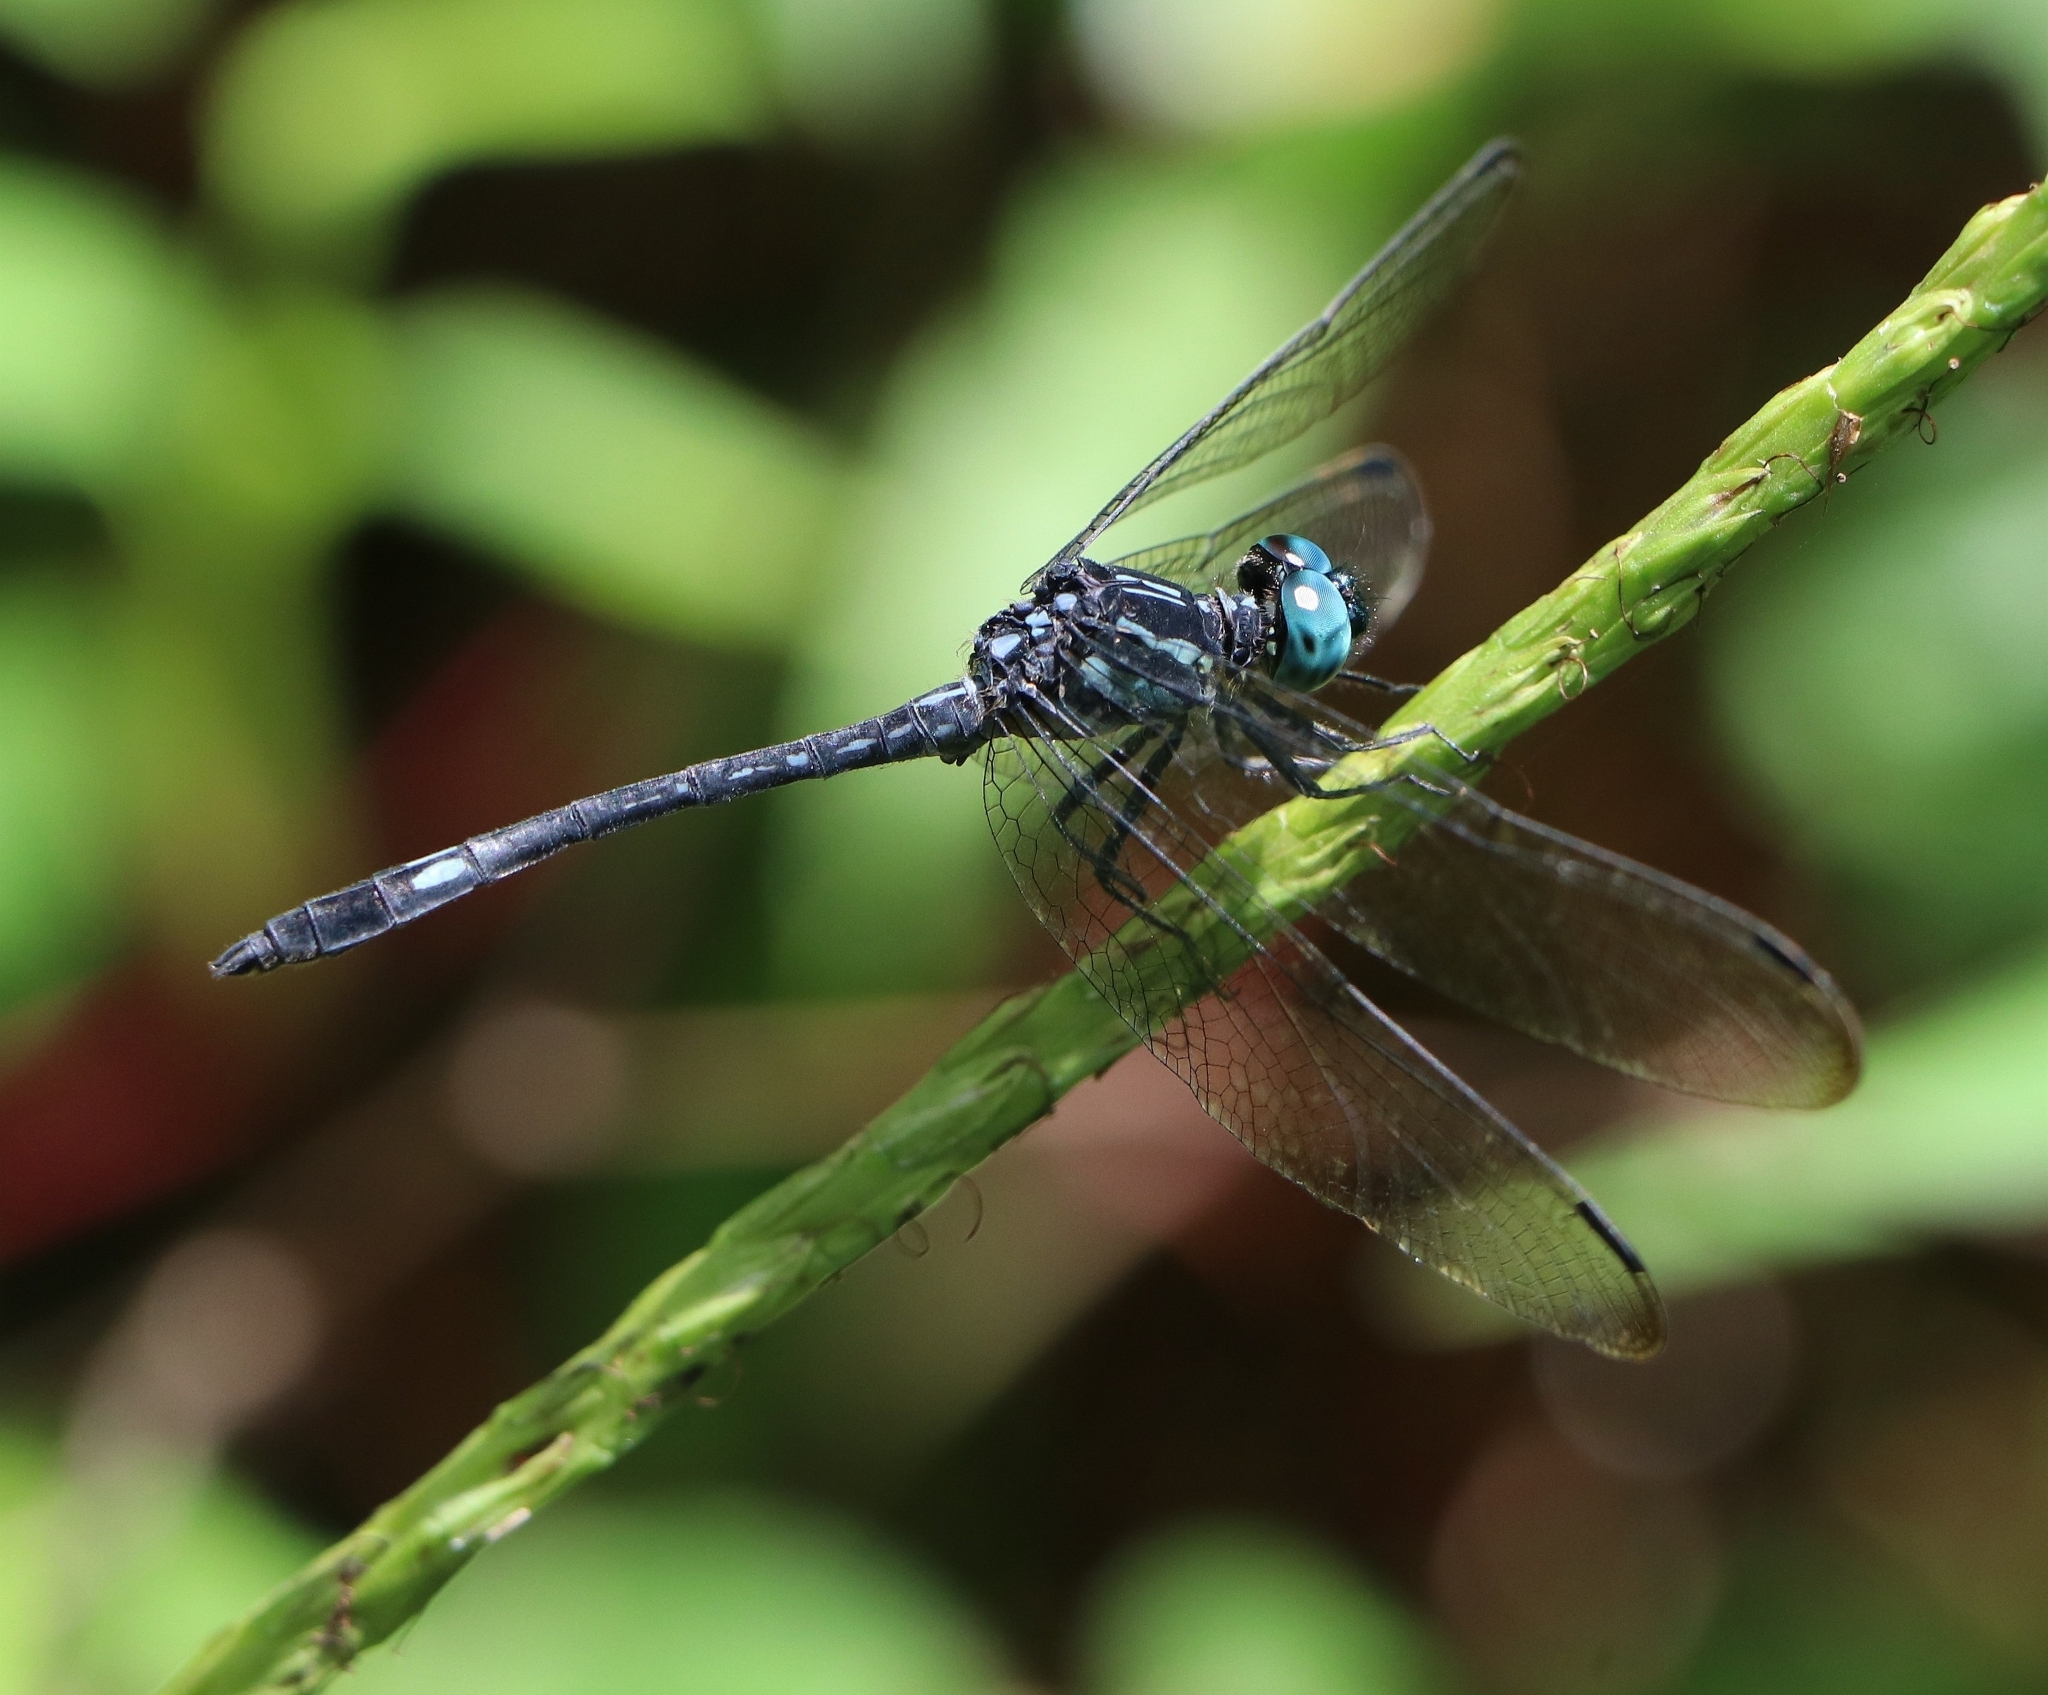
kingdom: Animalia
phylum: Arthropoda
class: Insecta
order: Odonata
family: Libellulidae
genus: Hylaeothemis
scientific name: Hylaeothemis apicalis
